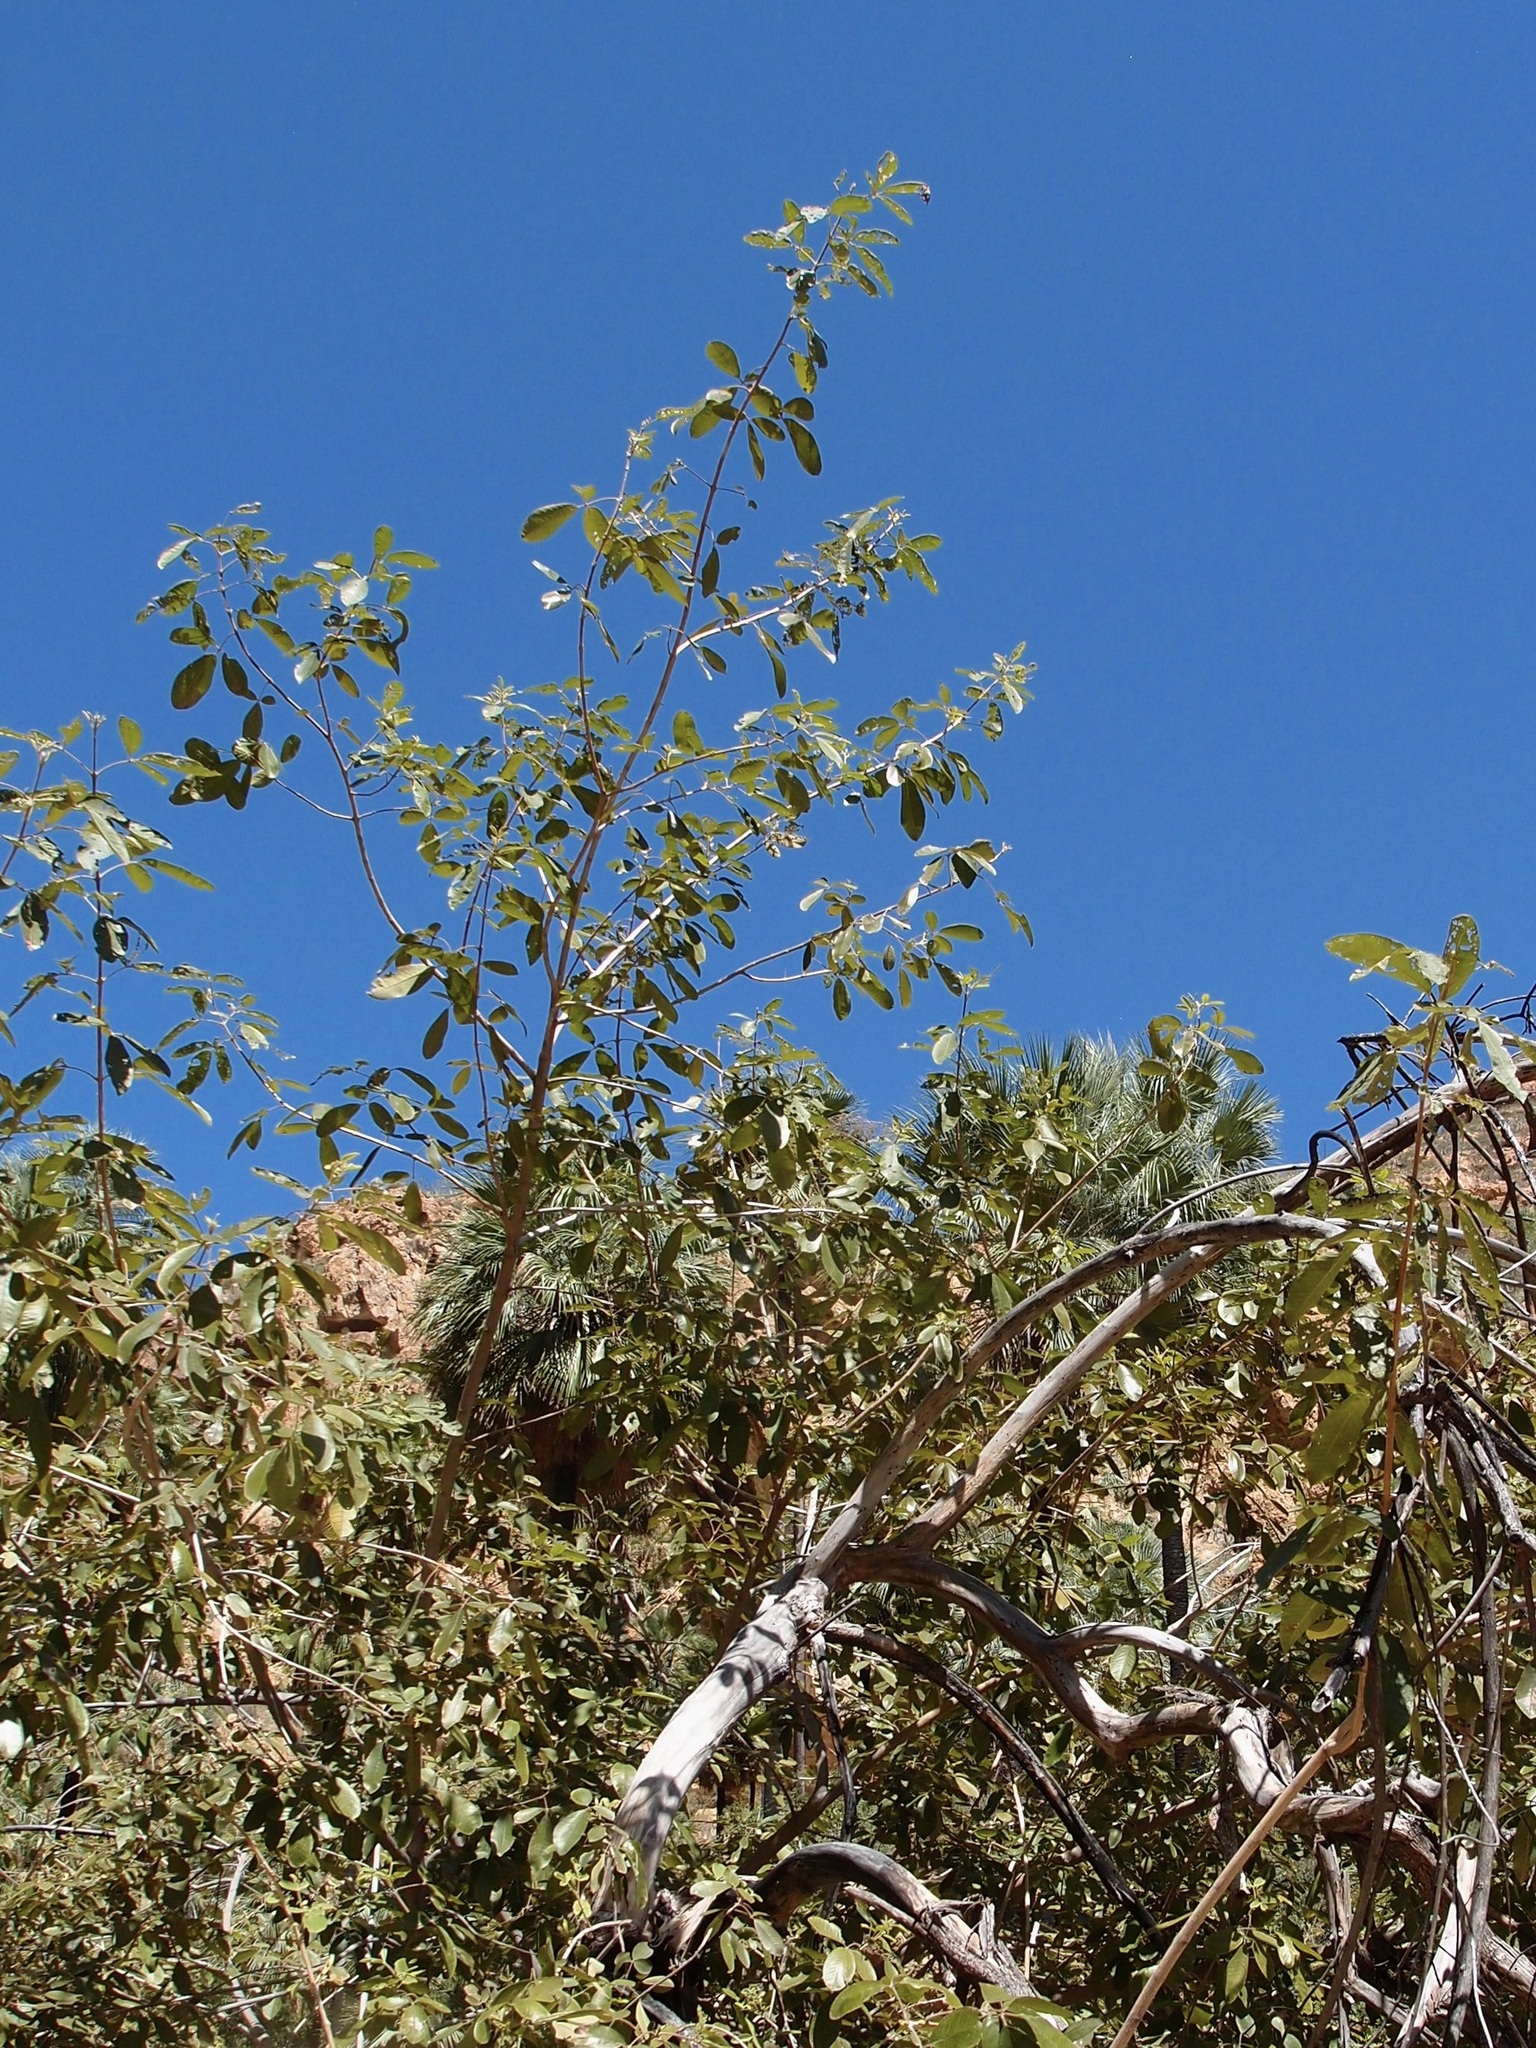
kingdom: Plantae
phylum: Tracheophyta
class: Magnoliopsida
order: Lamiales
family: Lamiaceae
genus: Vitex
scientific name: Vitex mollis
